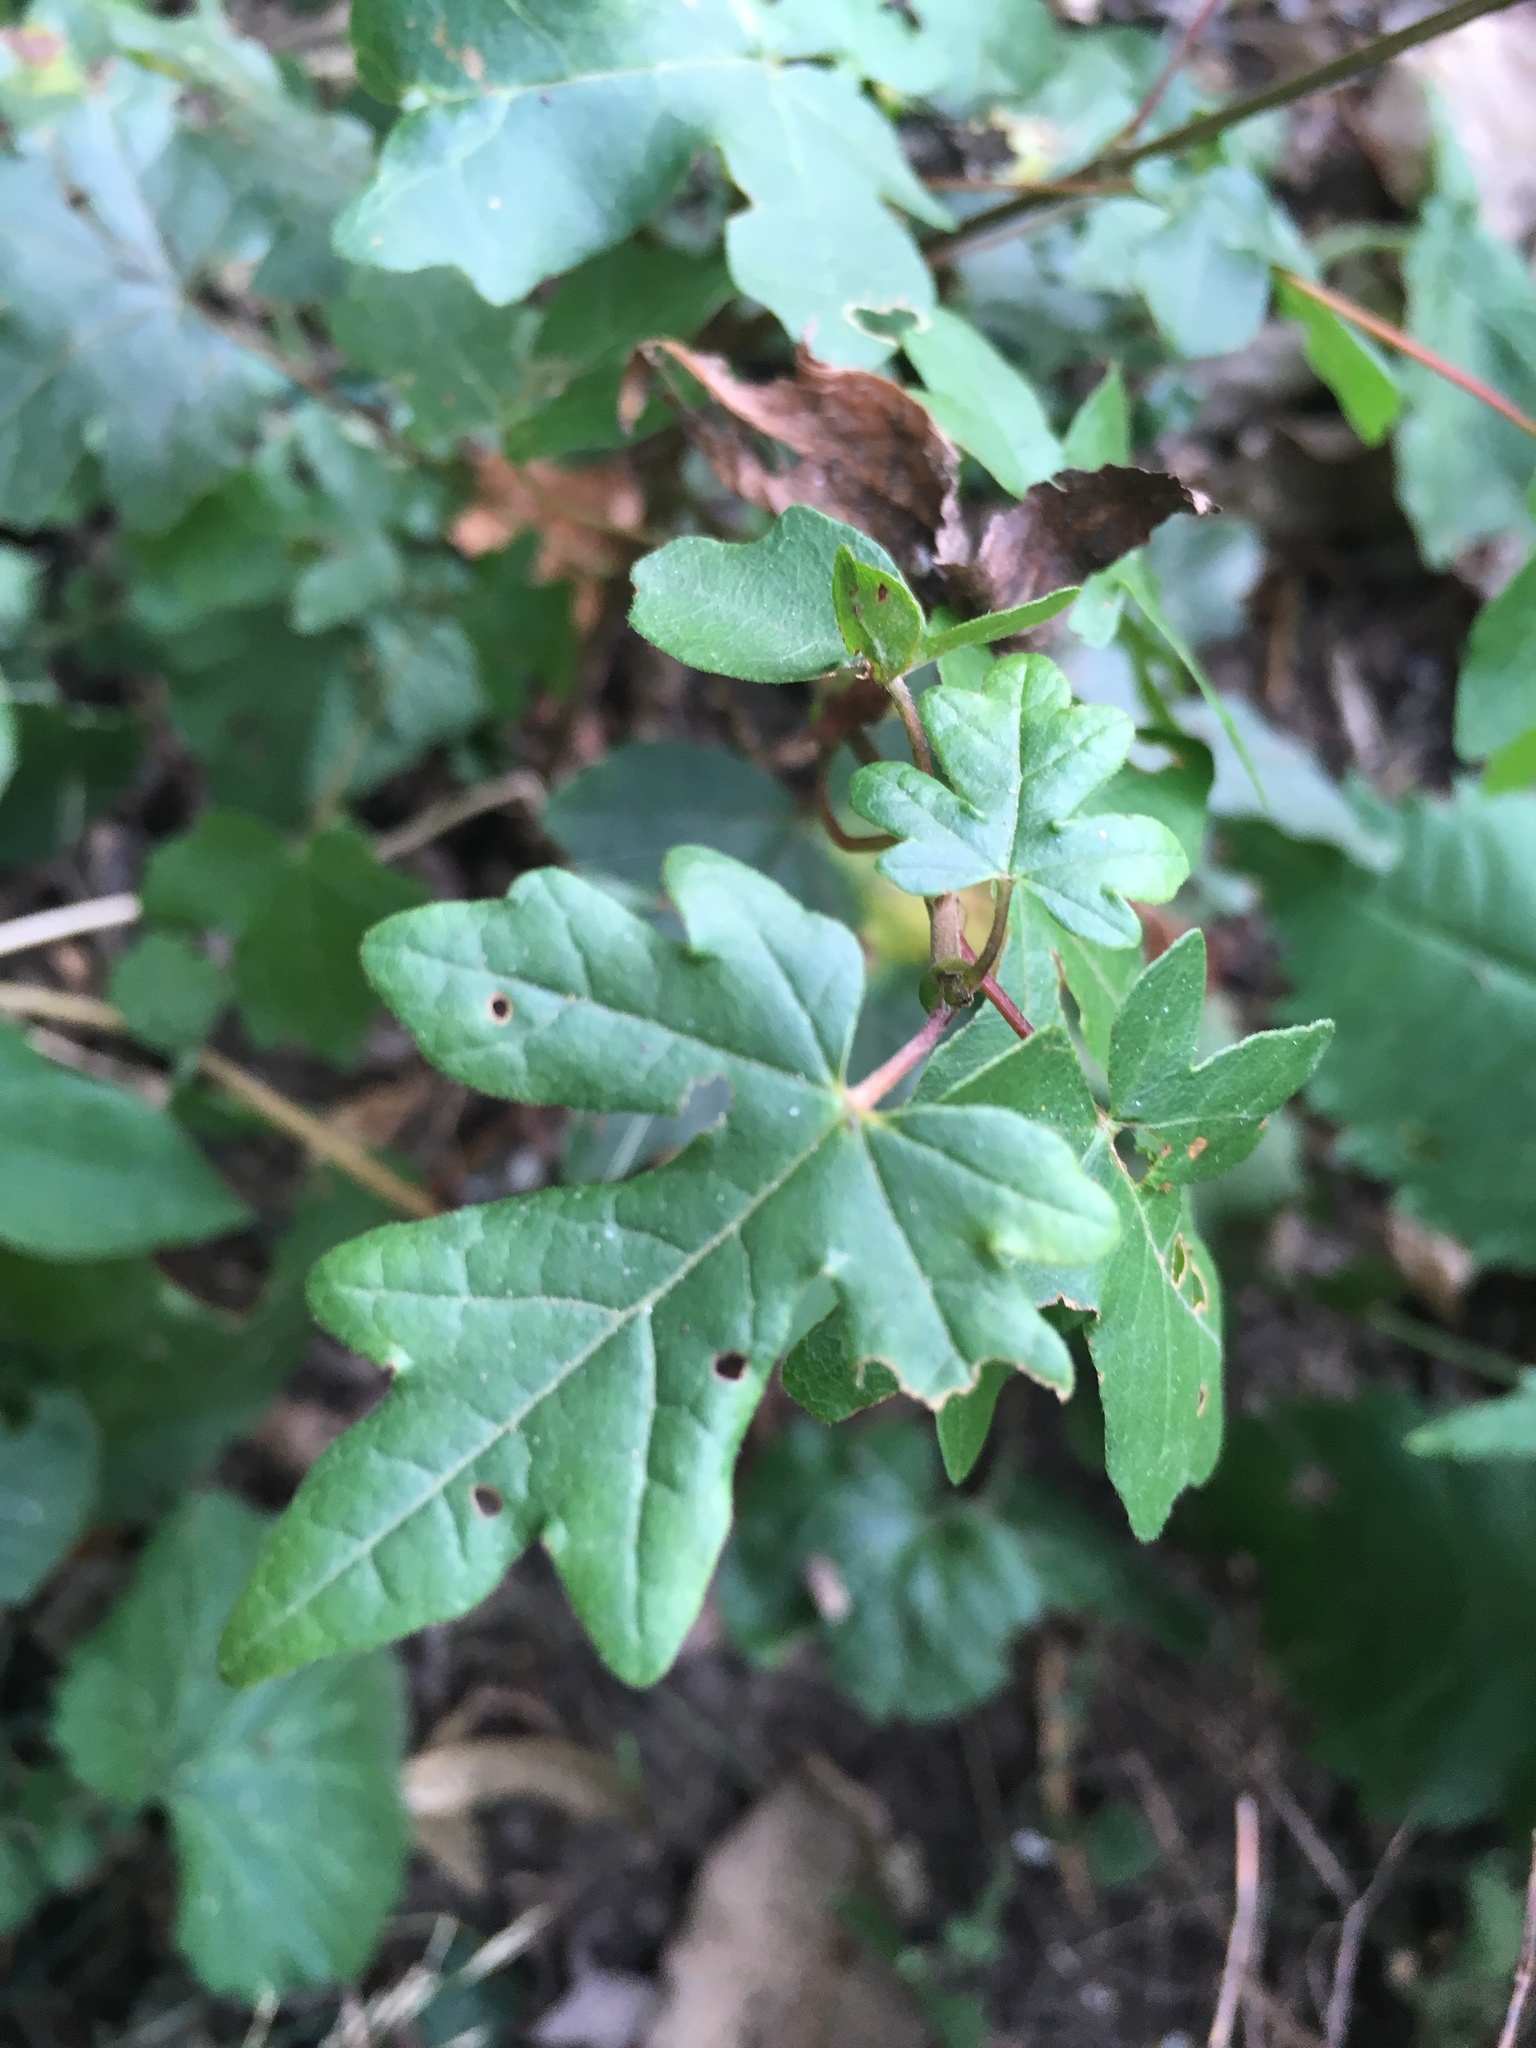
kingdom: Plantae
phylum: Tracheophyta
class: Magnoliopsida
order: Sapindales
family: Sapindaceae
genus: Acer
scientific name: Acer campestre
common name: Field maple
